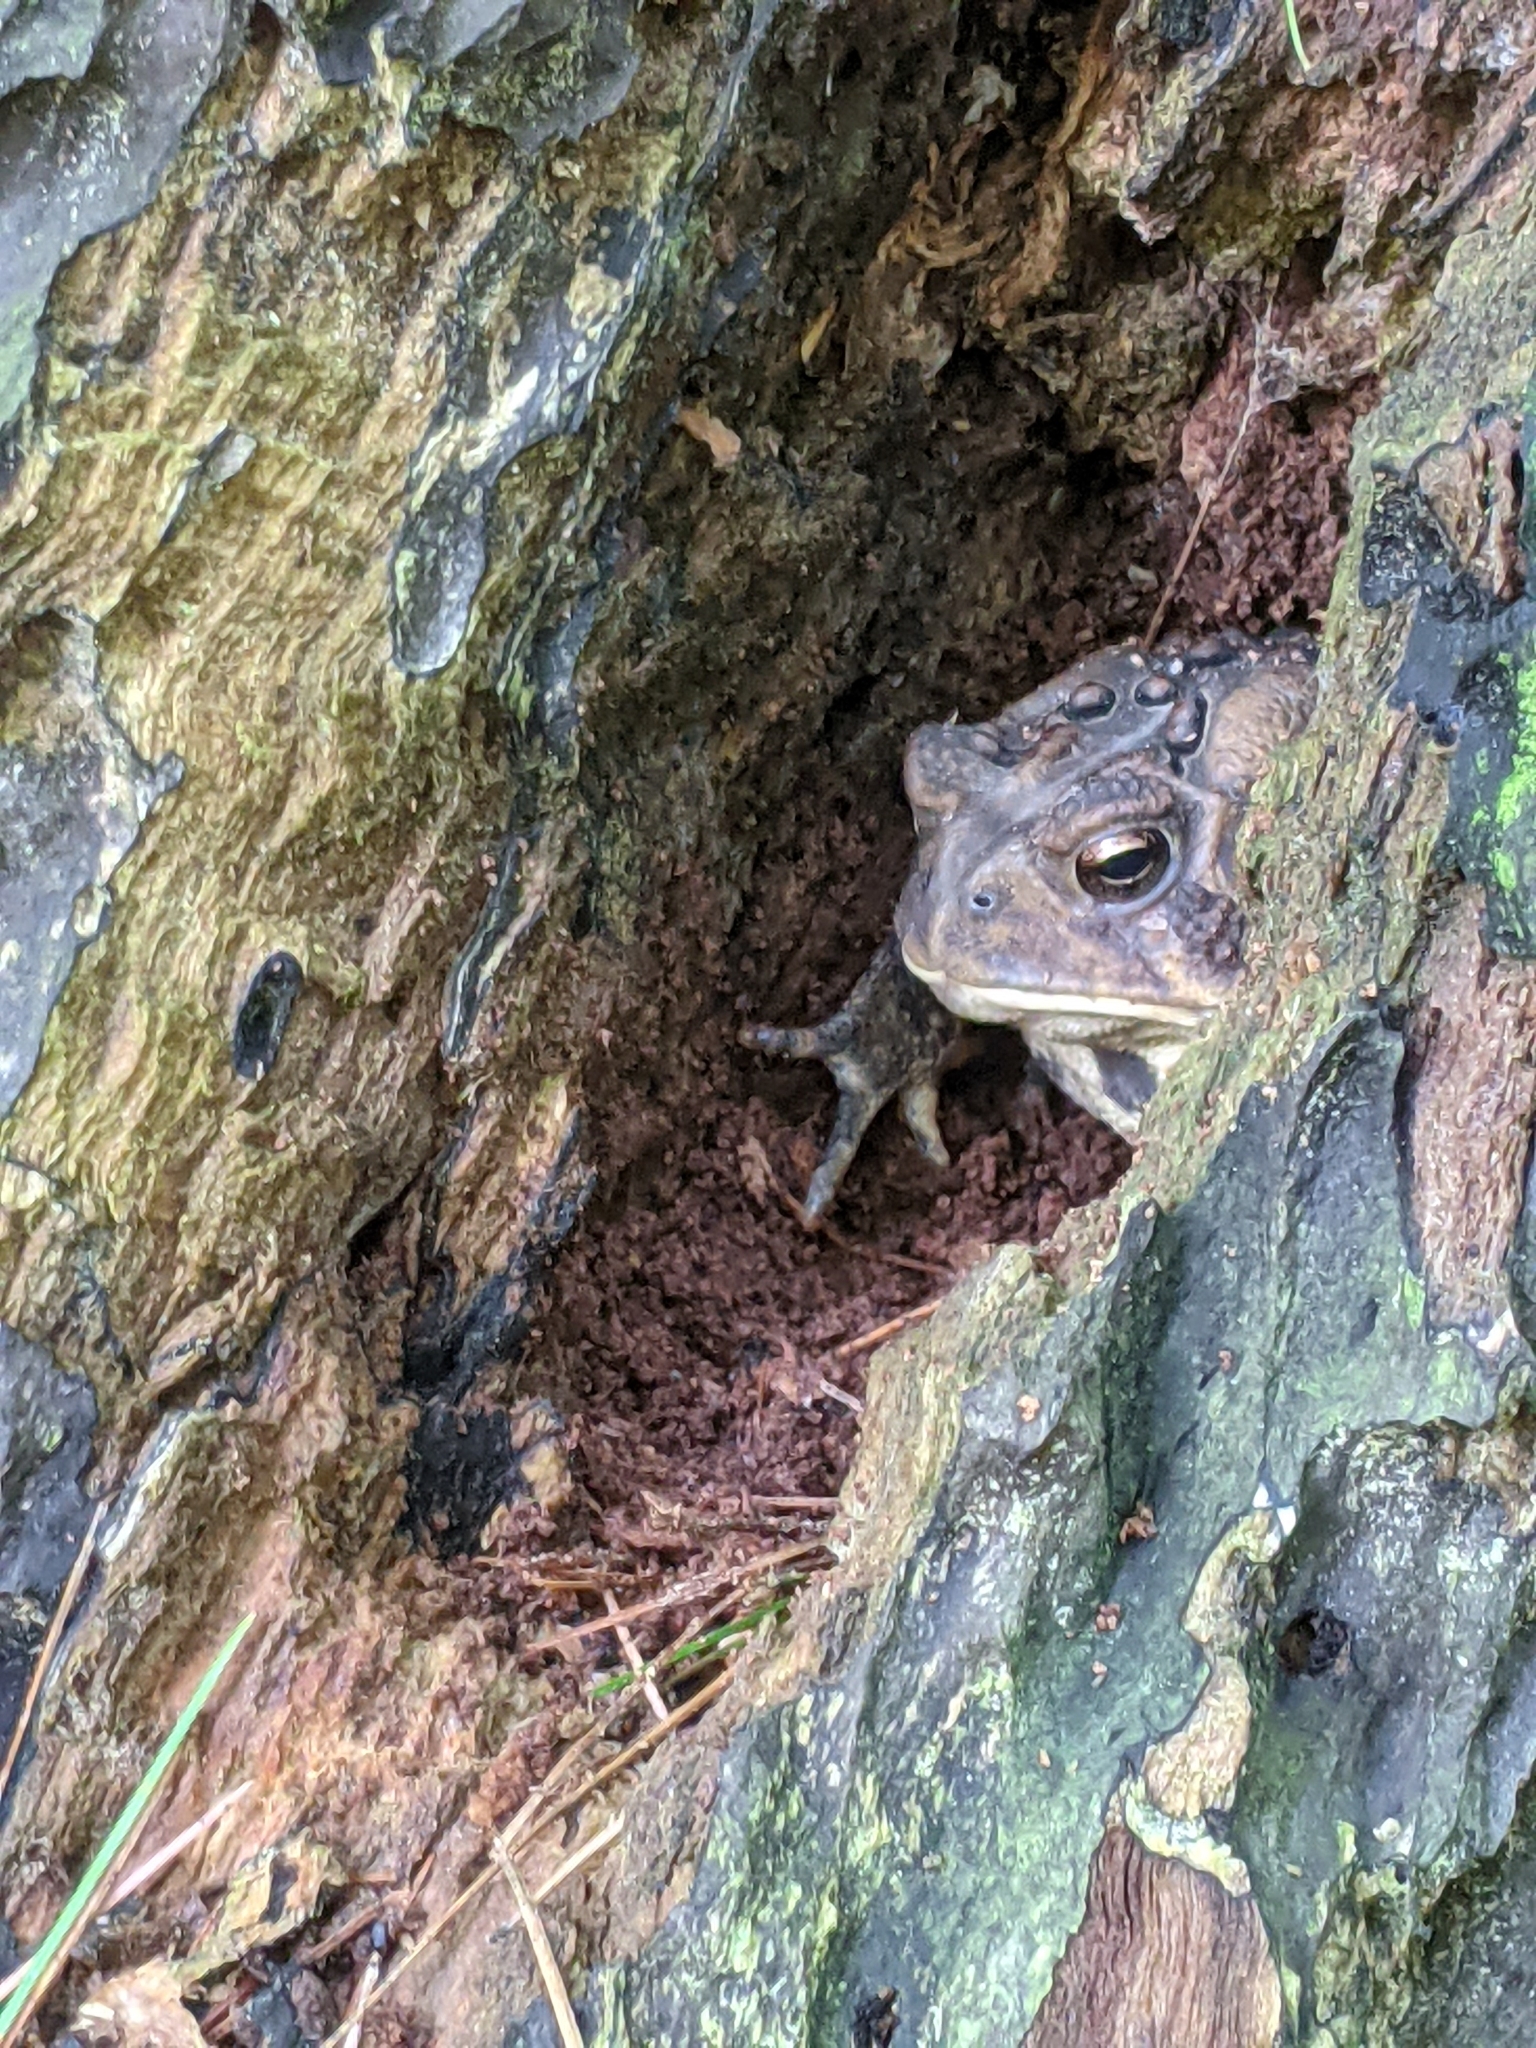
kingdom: Animalia
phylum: Chordata
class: Amphibia
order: Anura
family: Bufonidae
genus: Anaxyrus
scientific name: Anaxyrus americanus
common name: American toad
